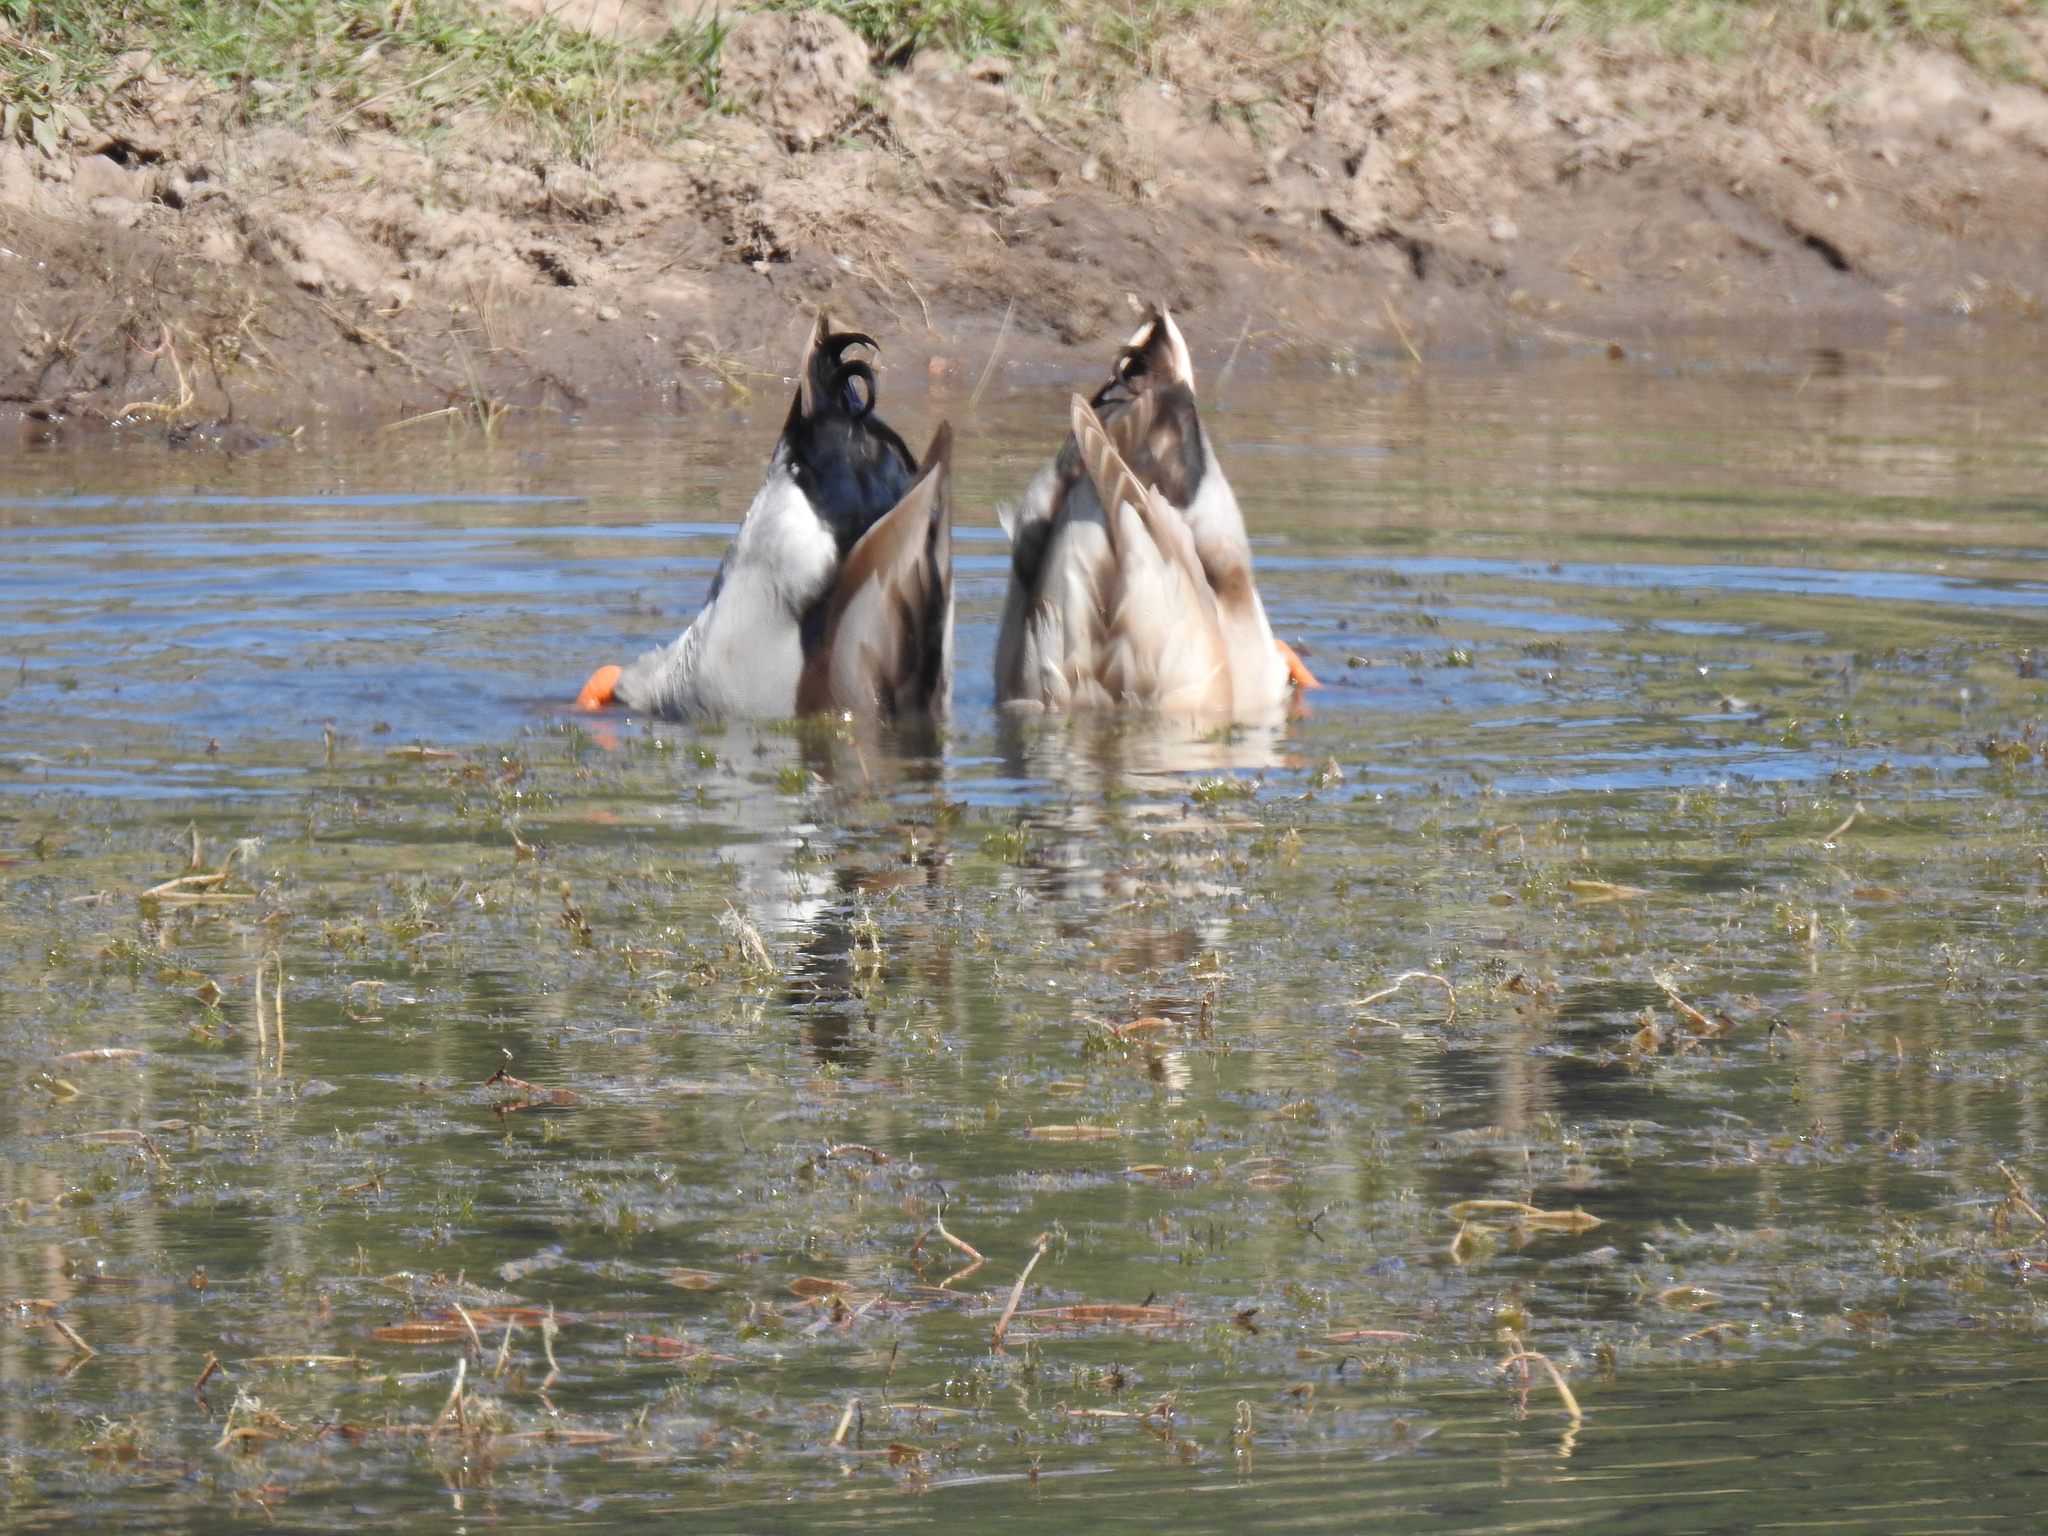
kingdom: Animalia
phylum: Chordata
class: Aves
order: Anseriformes
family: Anatidae
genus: Anas
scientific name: Anas platyrhynchos
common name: Mallard
